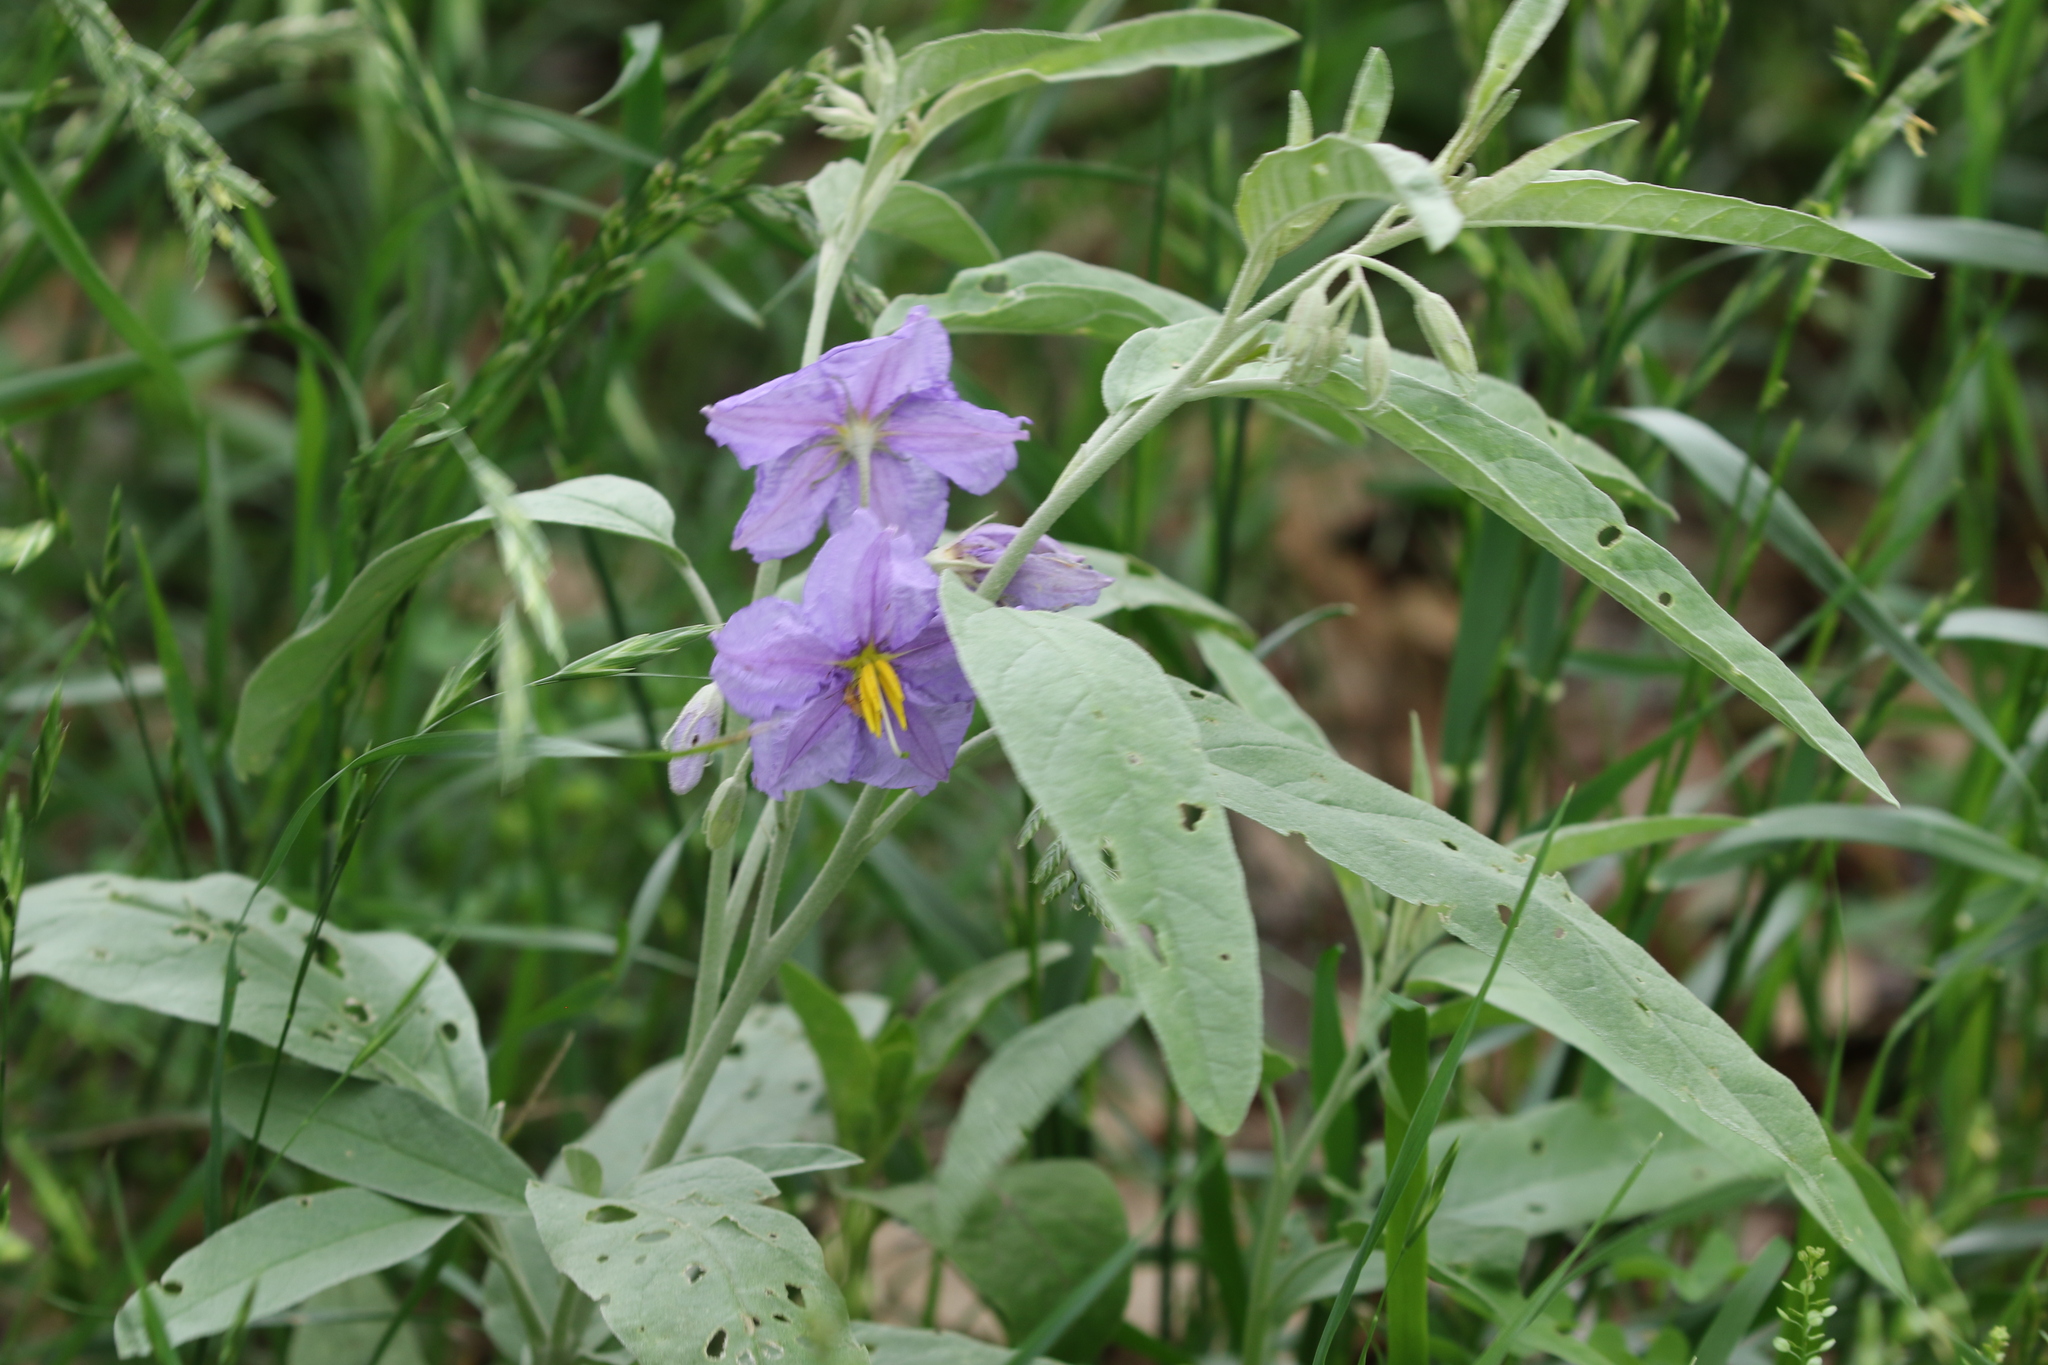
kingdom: Plantae
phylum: Tracheophyta
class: Magnoliopsida
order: Solanales
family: Solanaceae
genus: Solanum
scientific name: Solanum elaeagnifolium
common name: Silverleaf nightshade
